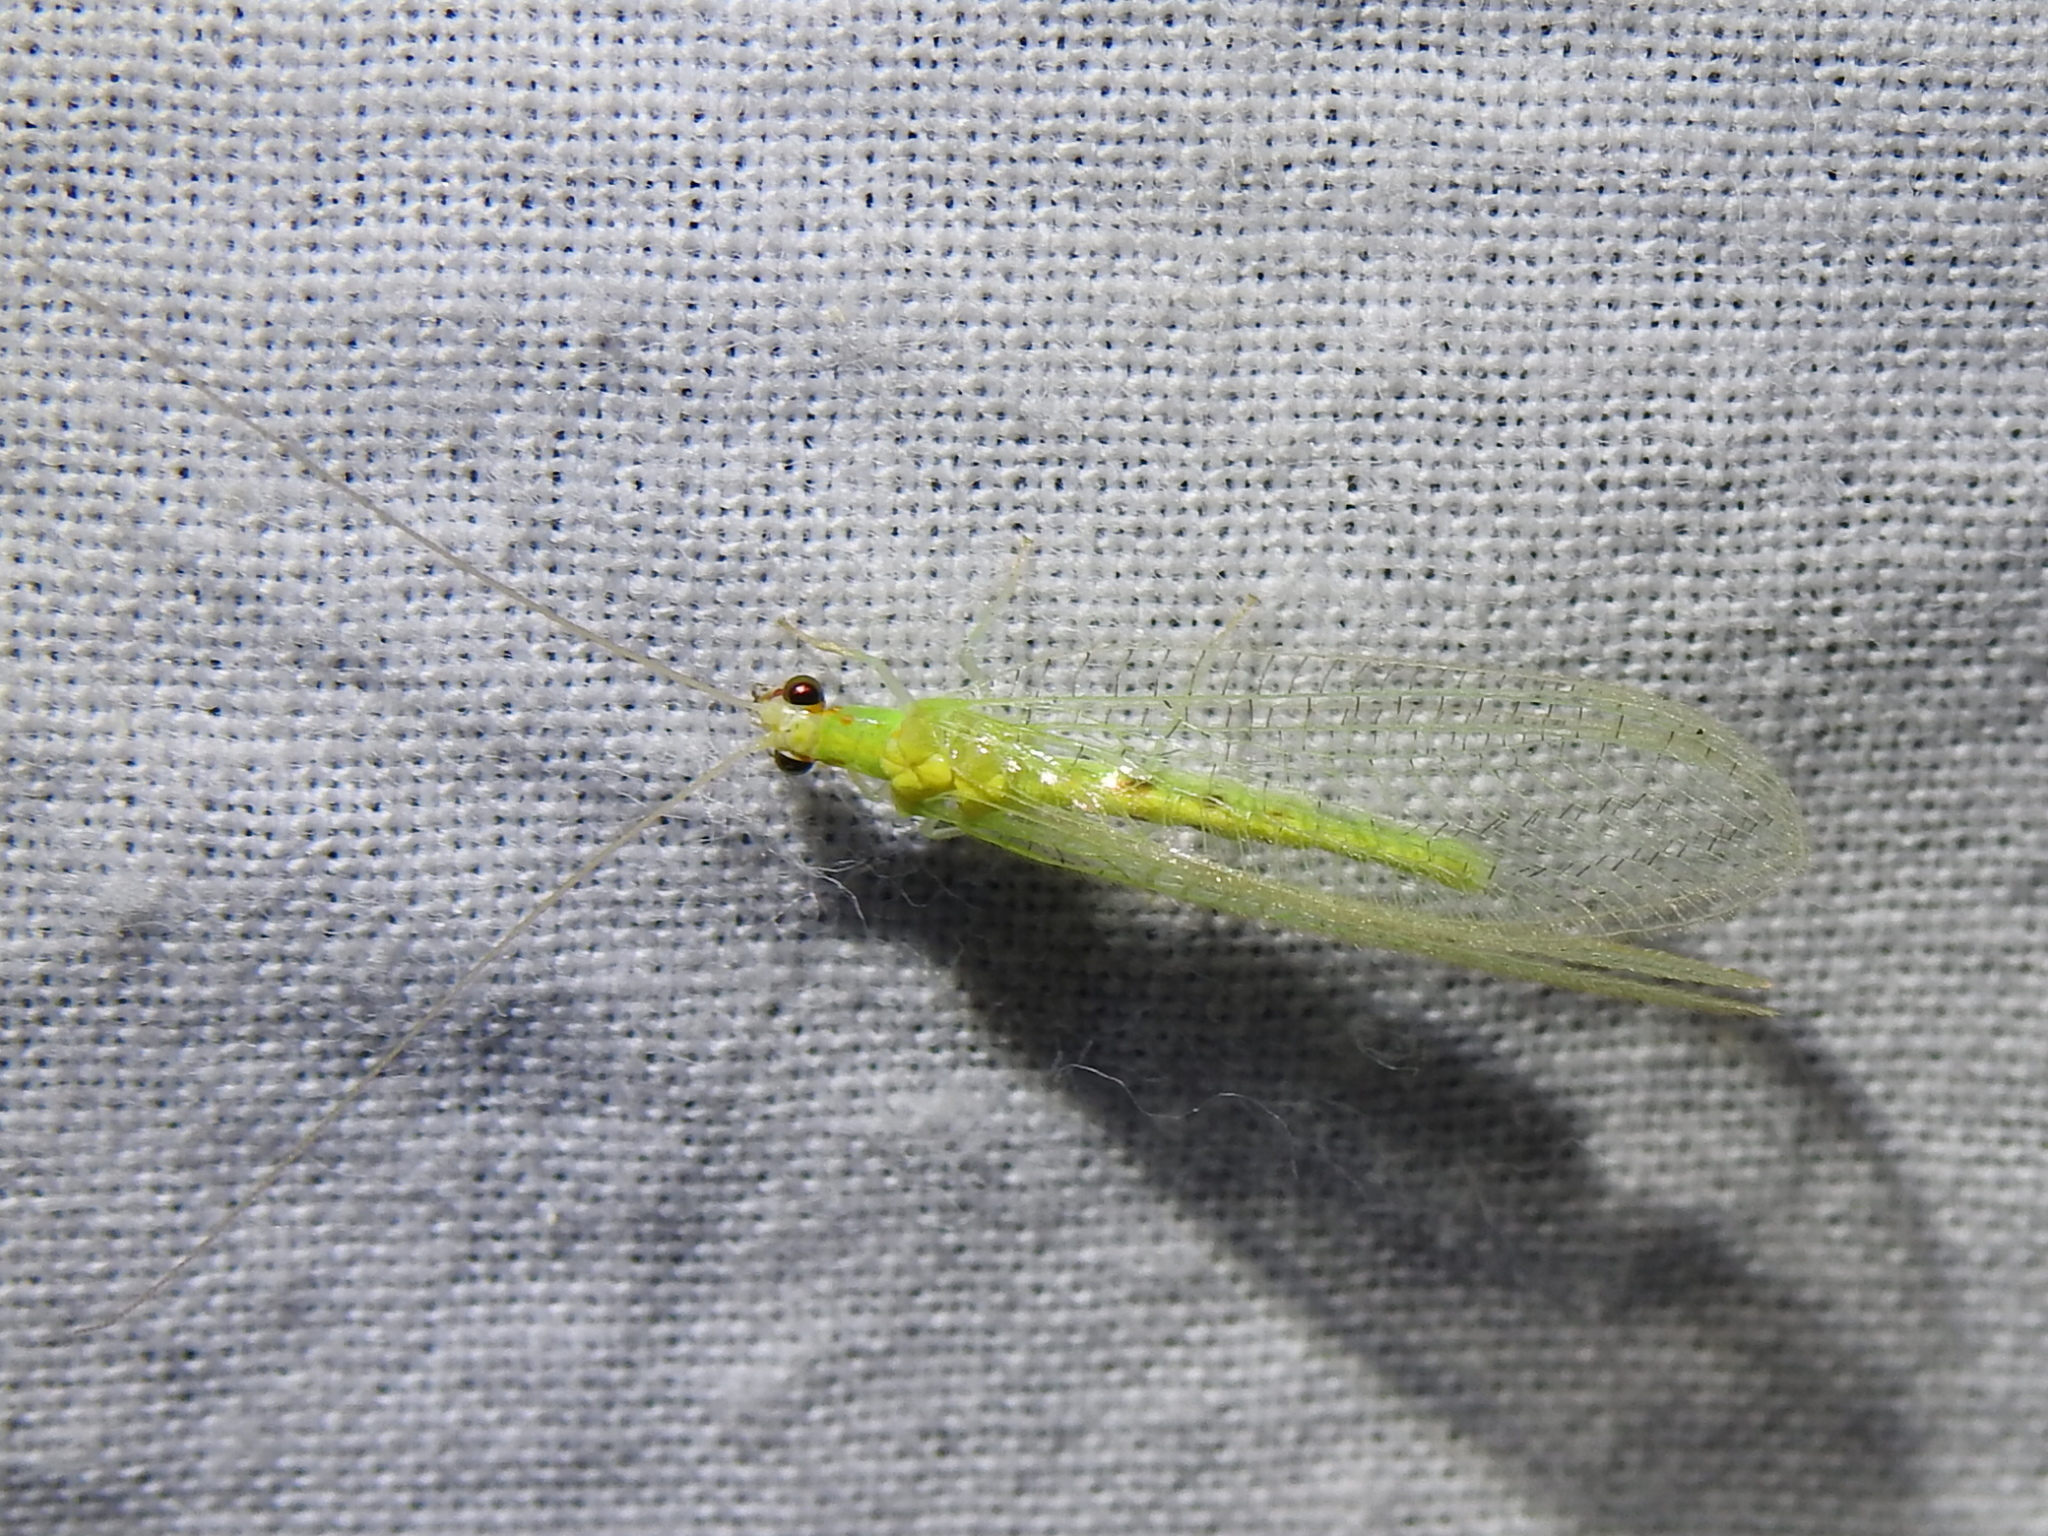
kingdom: Animalia
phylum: Arthropoda
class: Insecta
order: Neuroptera
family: Chrysopidae
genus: Chrysopa
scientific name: Chrysopa quadripunctata
